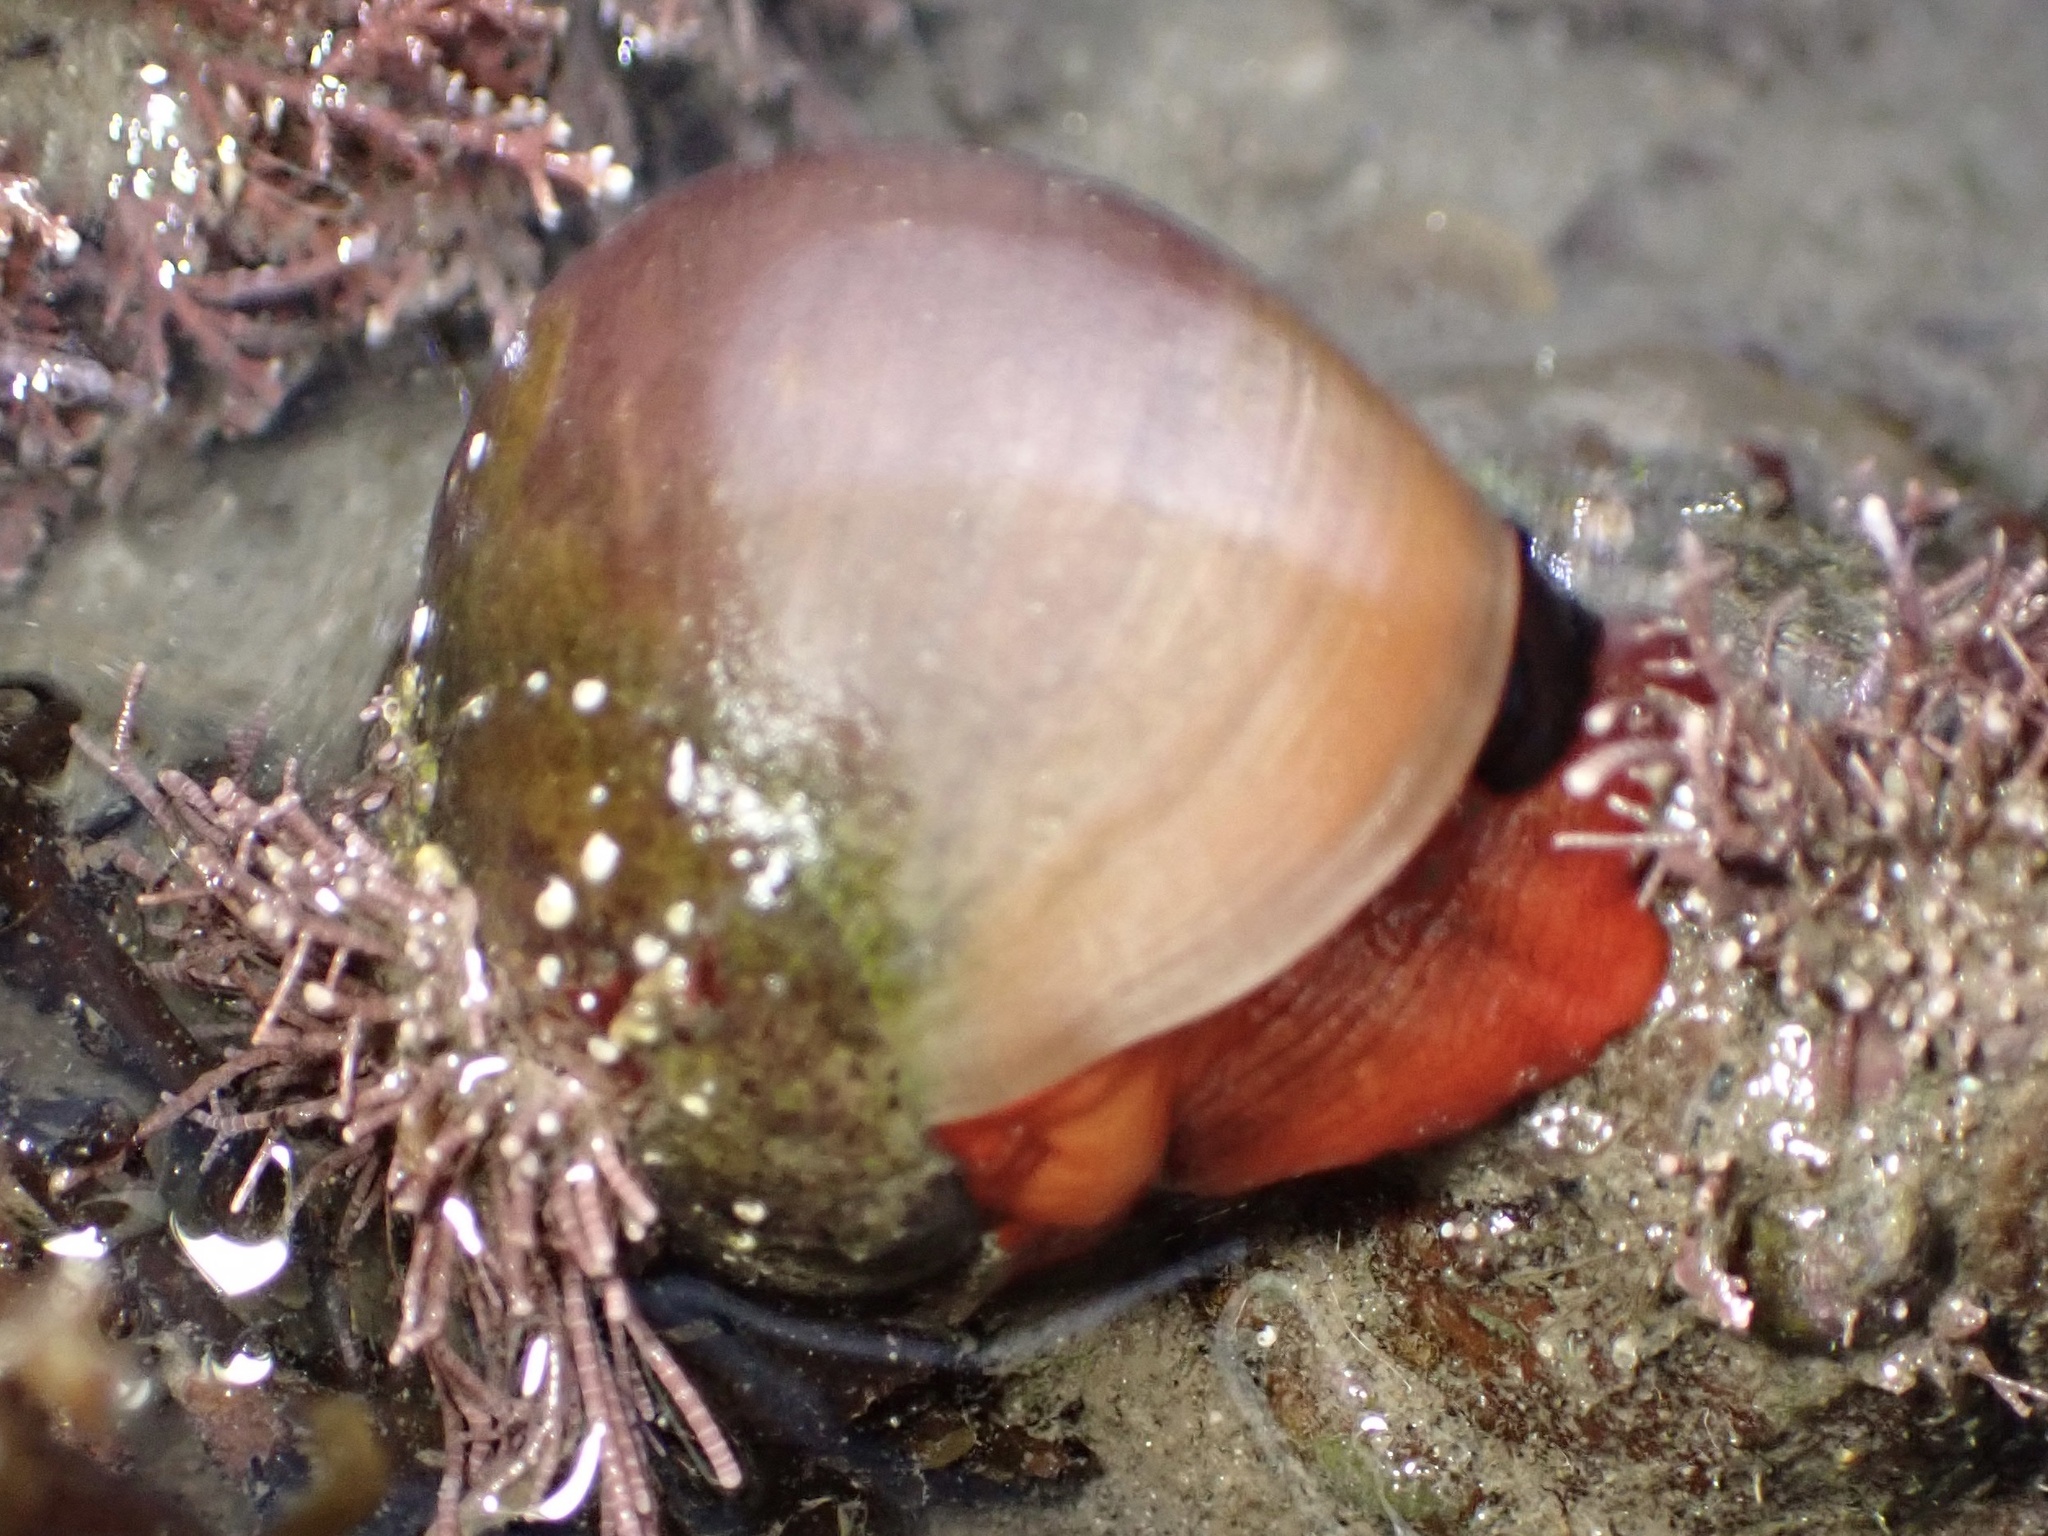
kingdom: Animalia
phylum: Mollusca
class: Gastropoda
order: Trochida
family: Tegulidae
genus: Norrisia
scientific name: Norrisia norrisii
